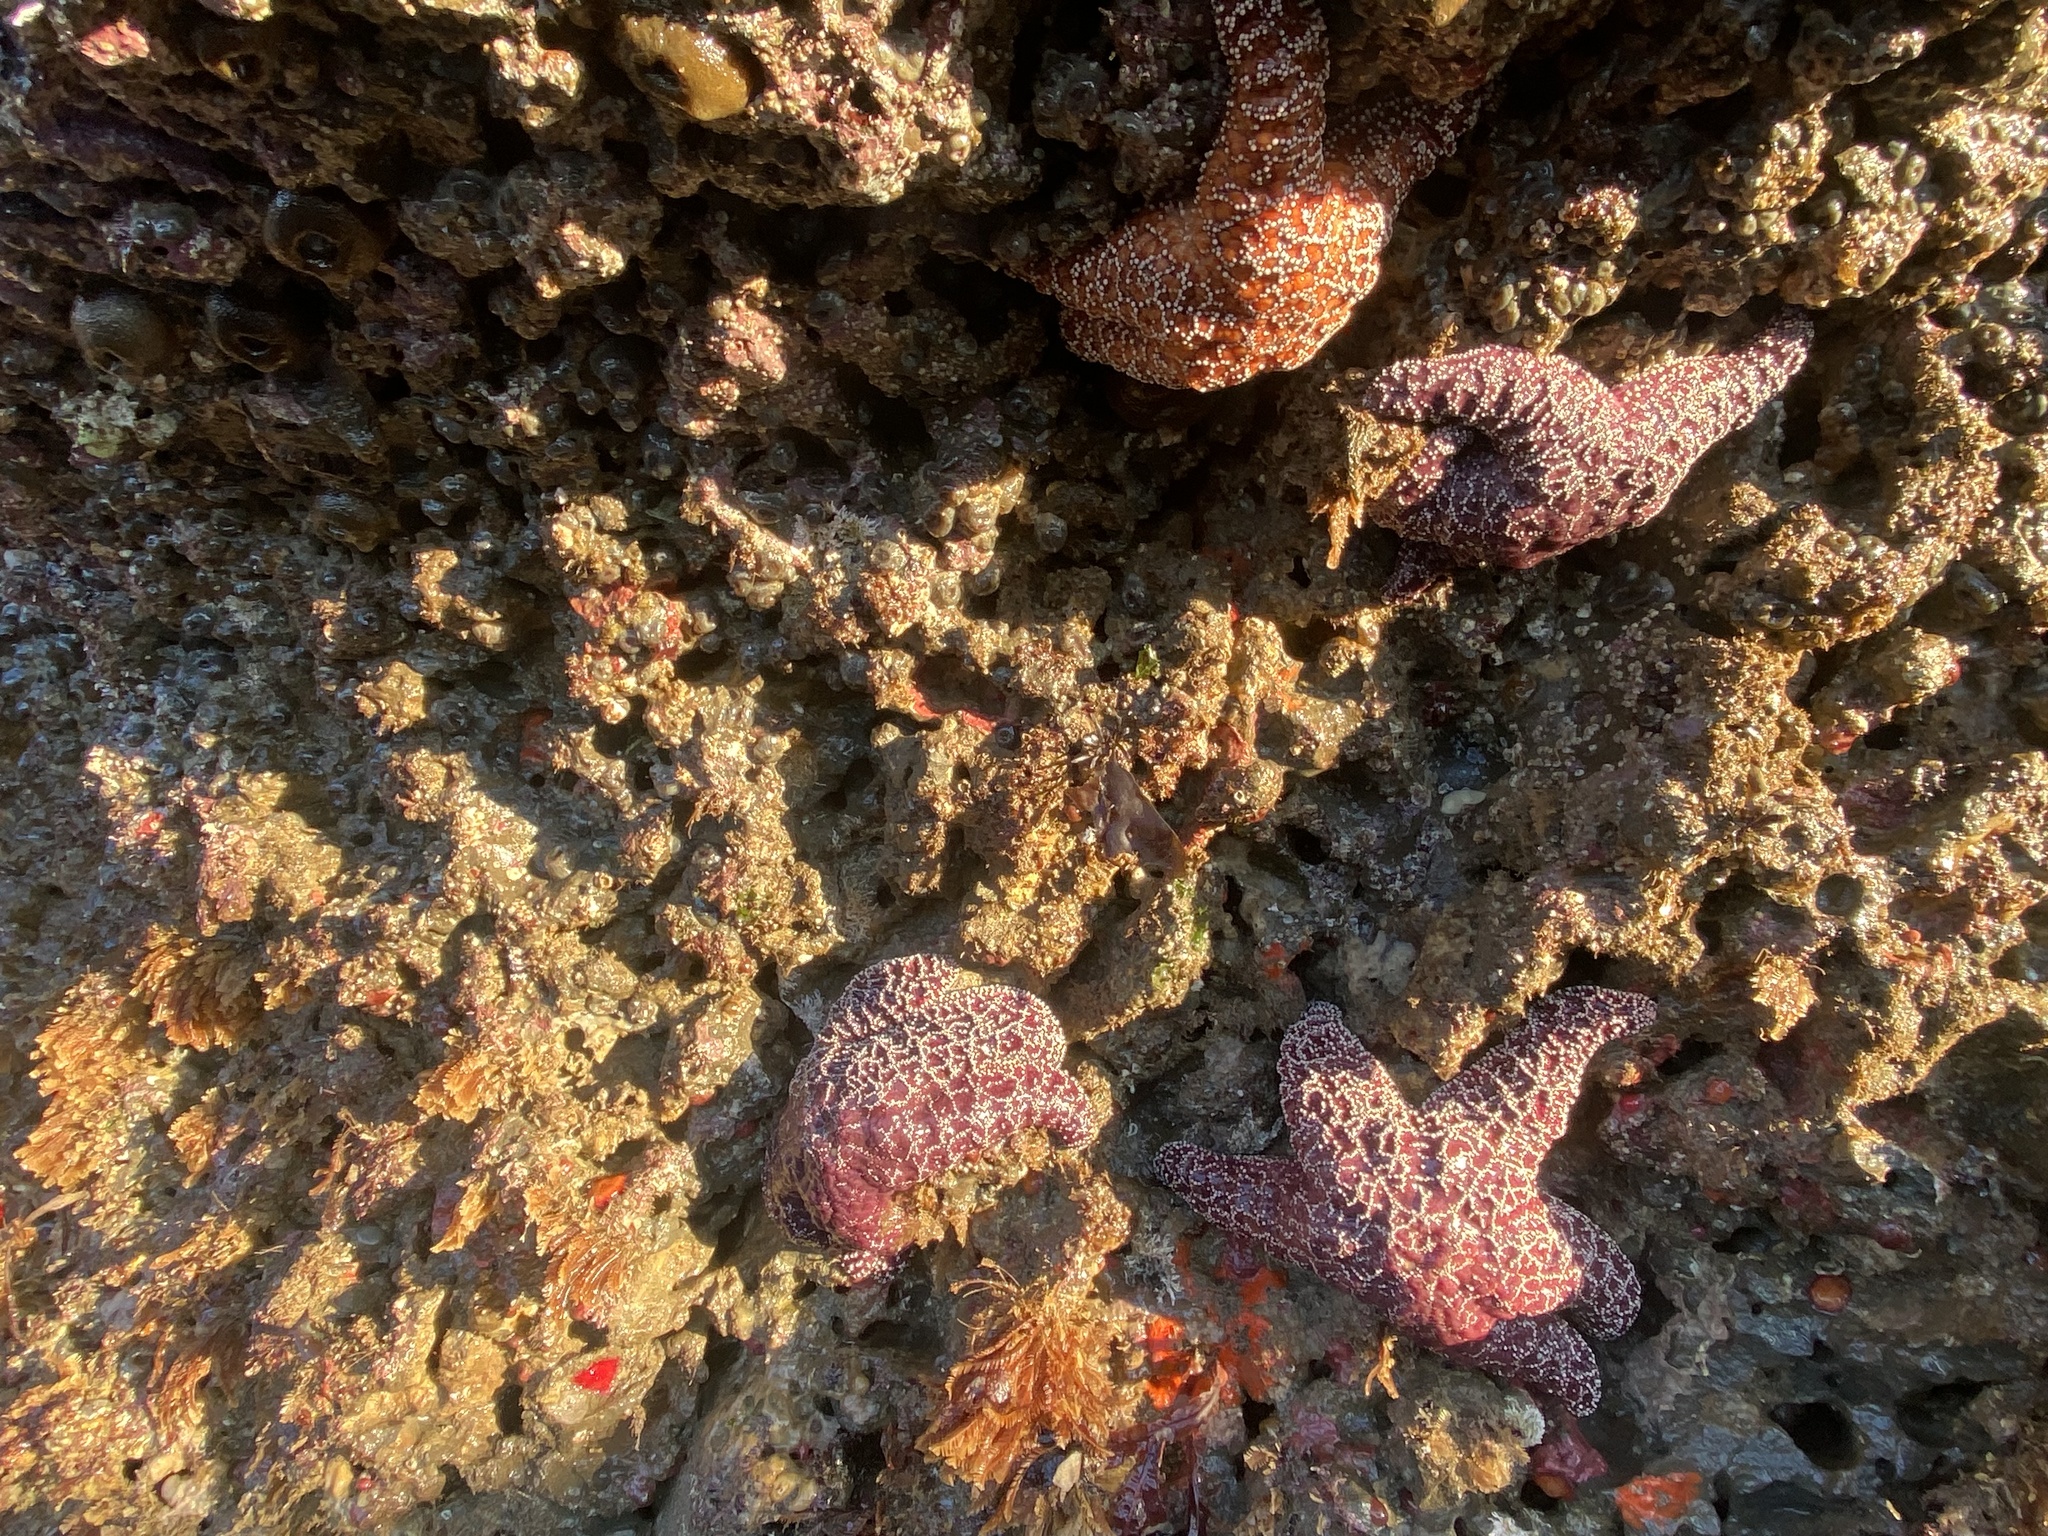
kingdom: Animalia
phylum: Echinodermata
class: Asteroidea
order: Forcipulatida
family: Asteriidae
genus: Pisaster
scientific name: Pisaster ochraceus
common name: Ochre stars
